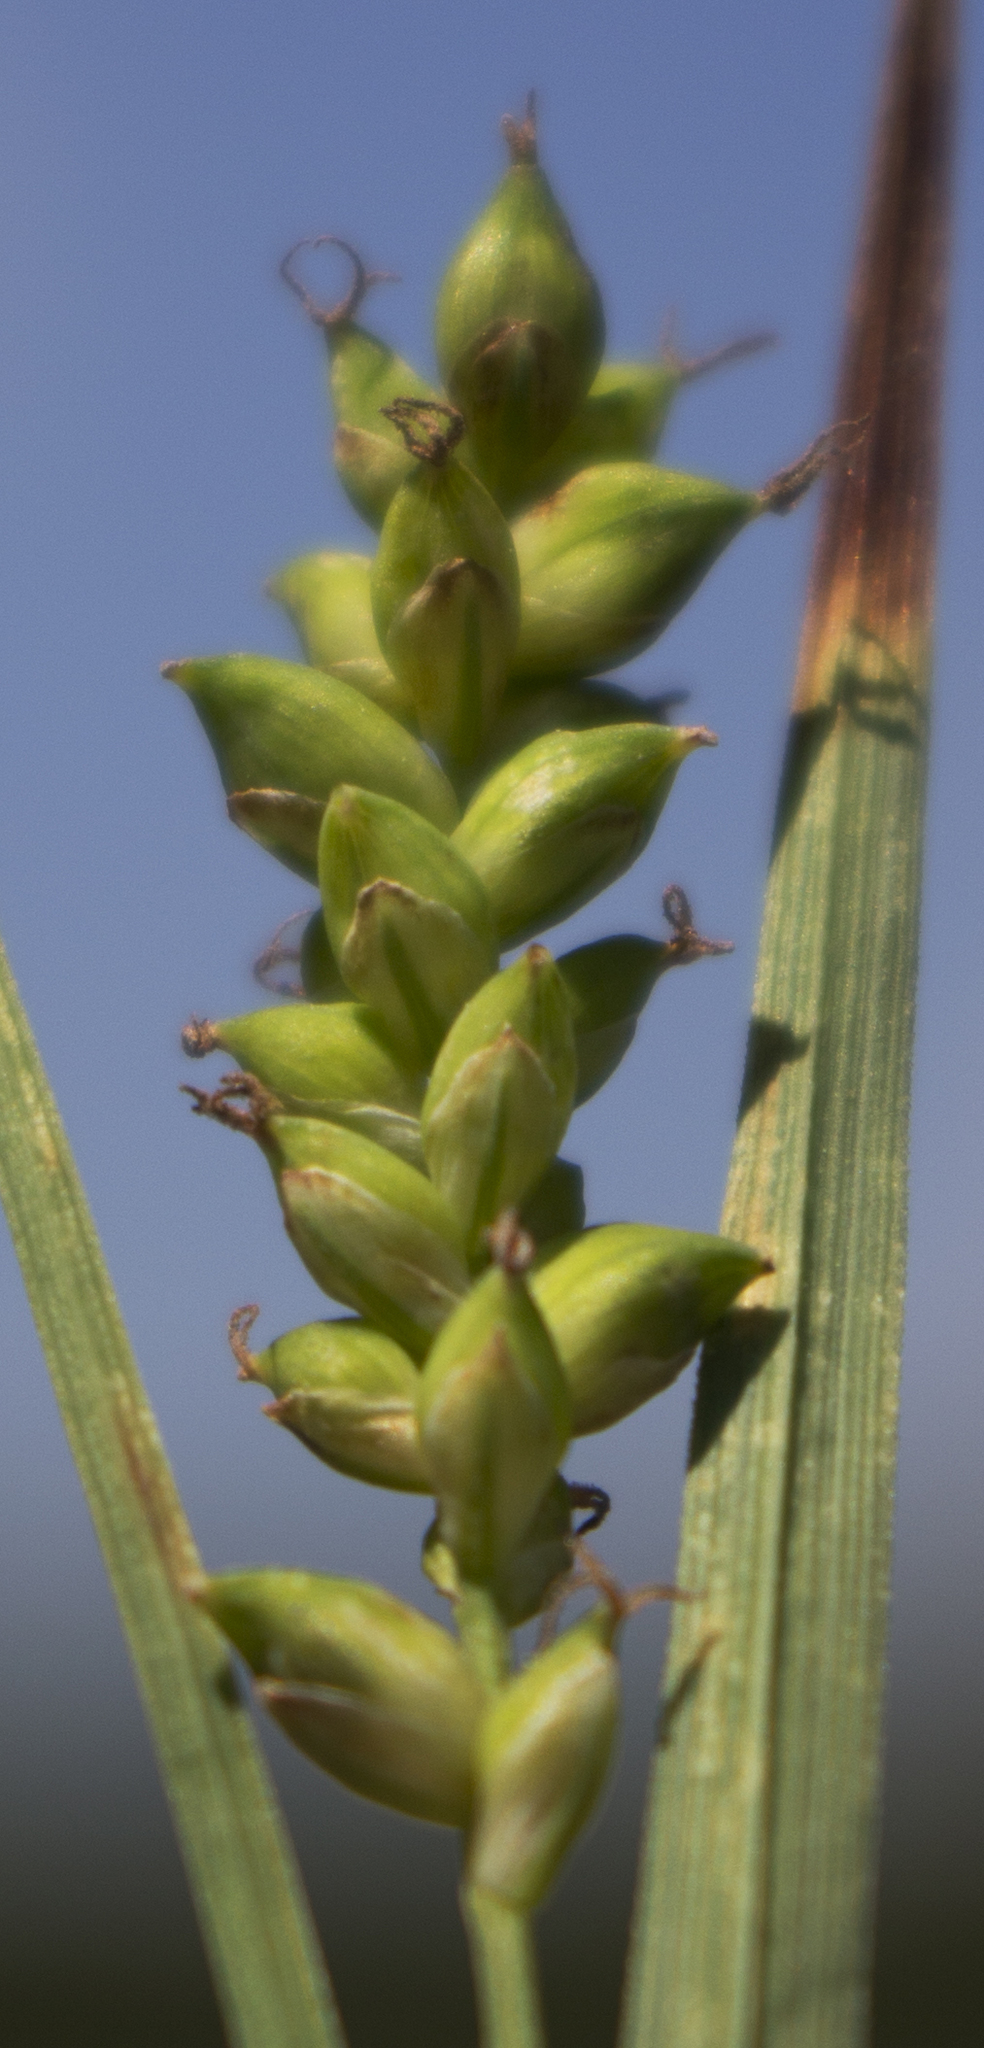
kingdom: Plantae
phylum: Tracheophyta
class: Liliopsida
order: Poales
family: Cyperaceae
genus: Carex
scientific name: Carex tetanica
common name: Rigid sedge
